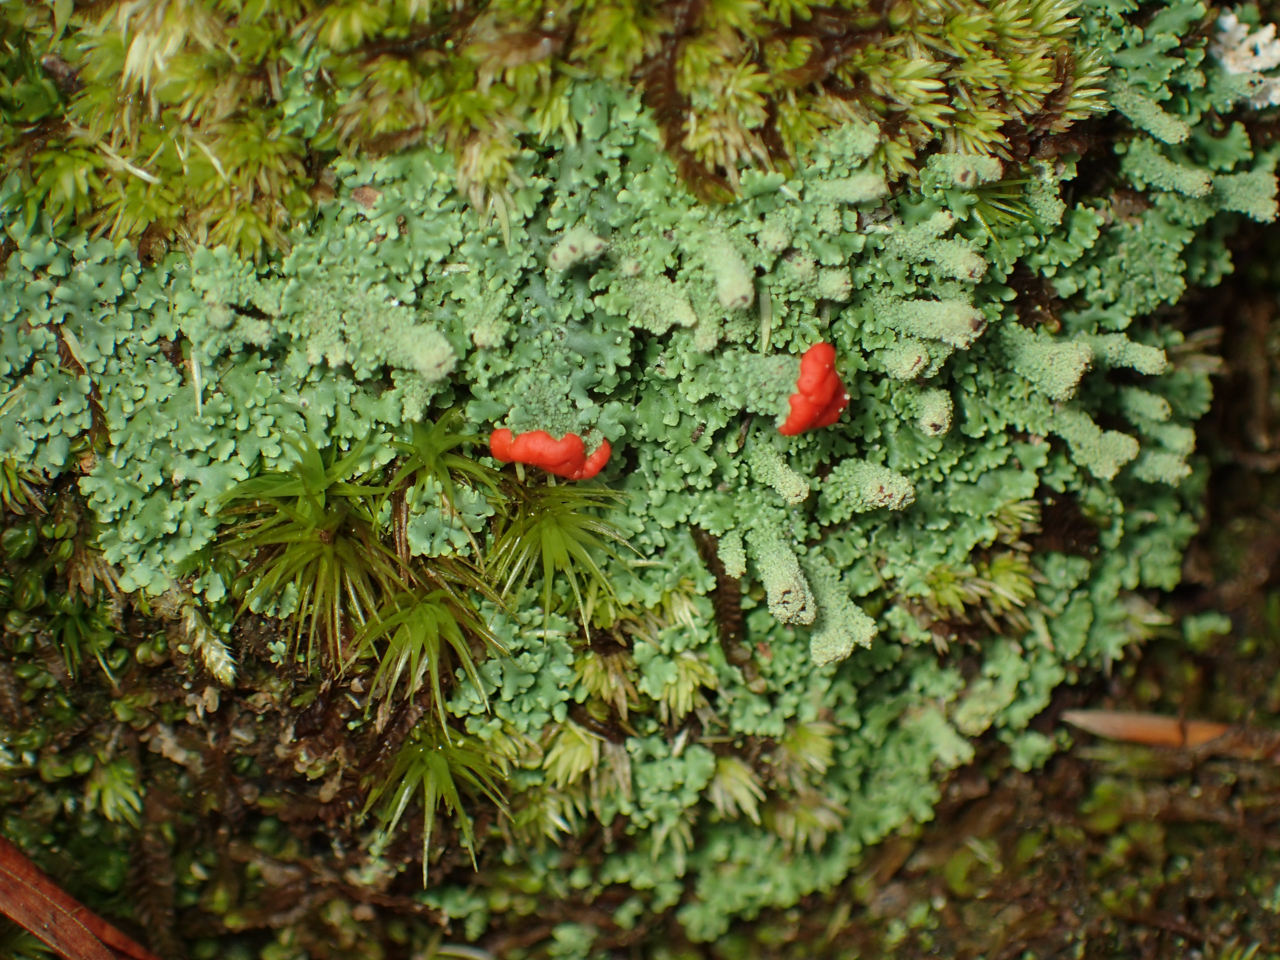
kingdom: Fungi
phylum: Ascomycota
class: Lecanoromycetes
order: Lecanorales
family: Cladoniaceae
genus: Cladonia
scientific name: Cladonia didyma
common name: Southern soldiers
